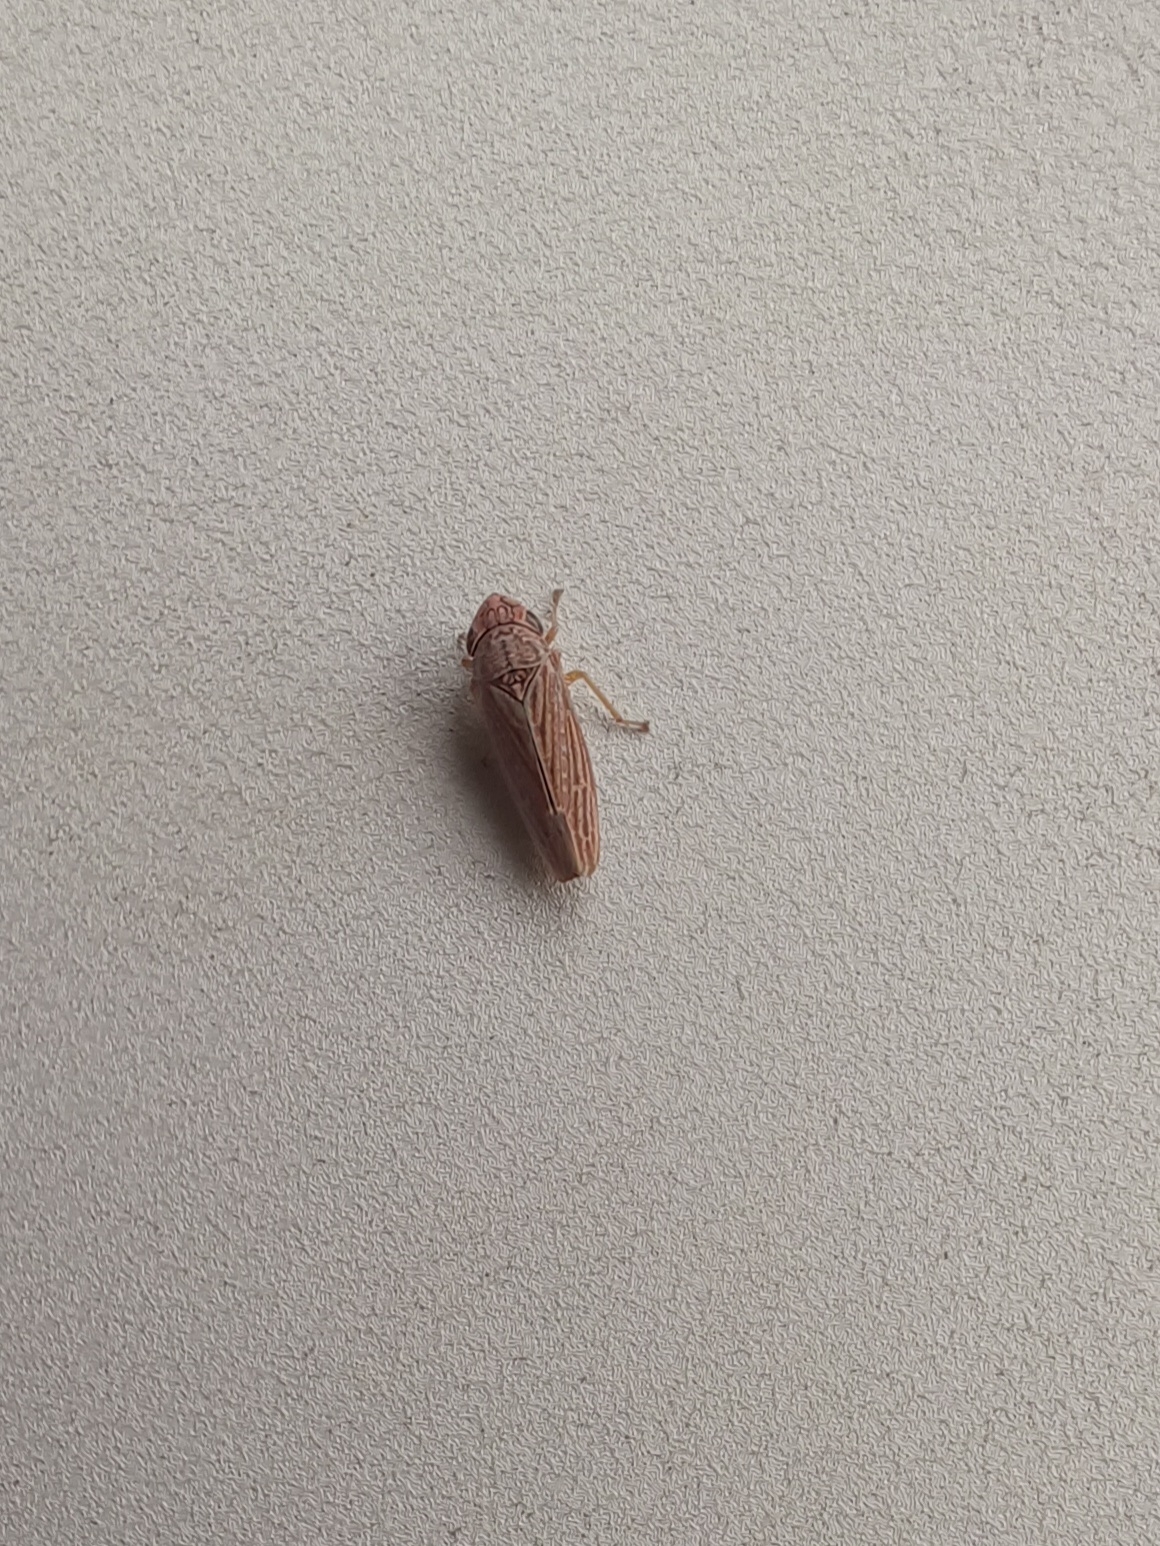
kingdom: Animalia
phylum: Arthropoda
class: Insecta
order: Hemiptera
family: Cicadellidae
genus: Neokolla
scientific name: Neokolla hieroglyphica
